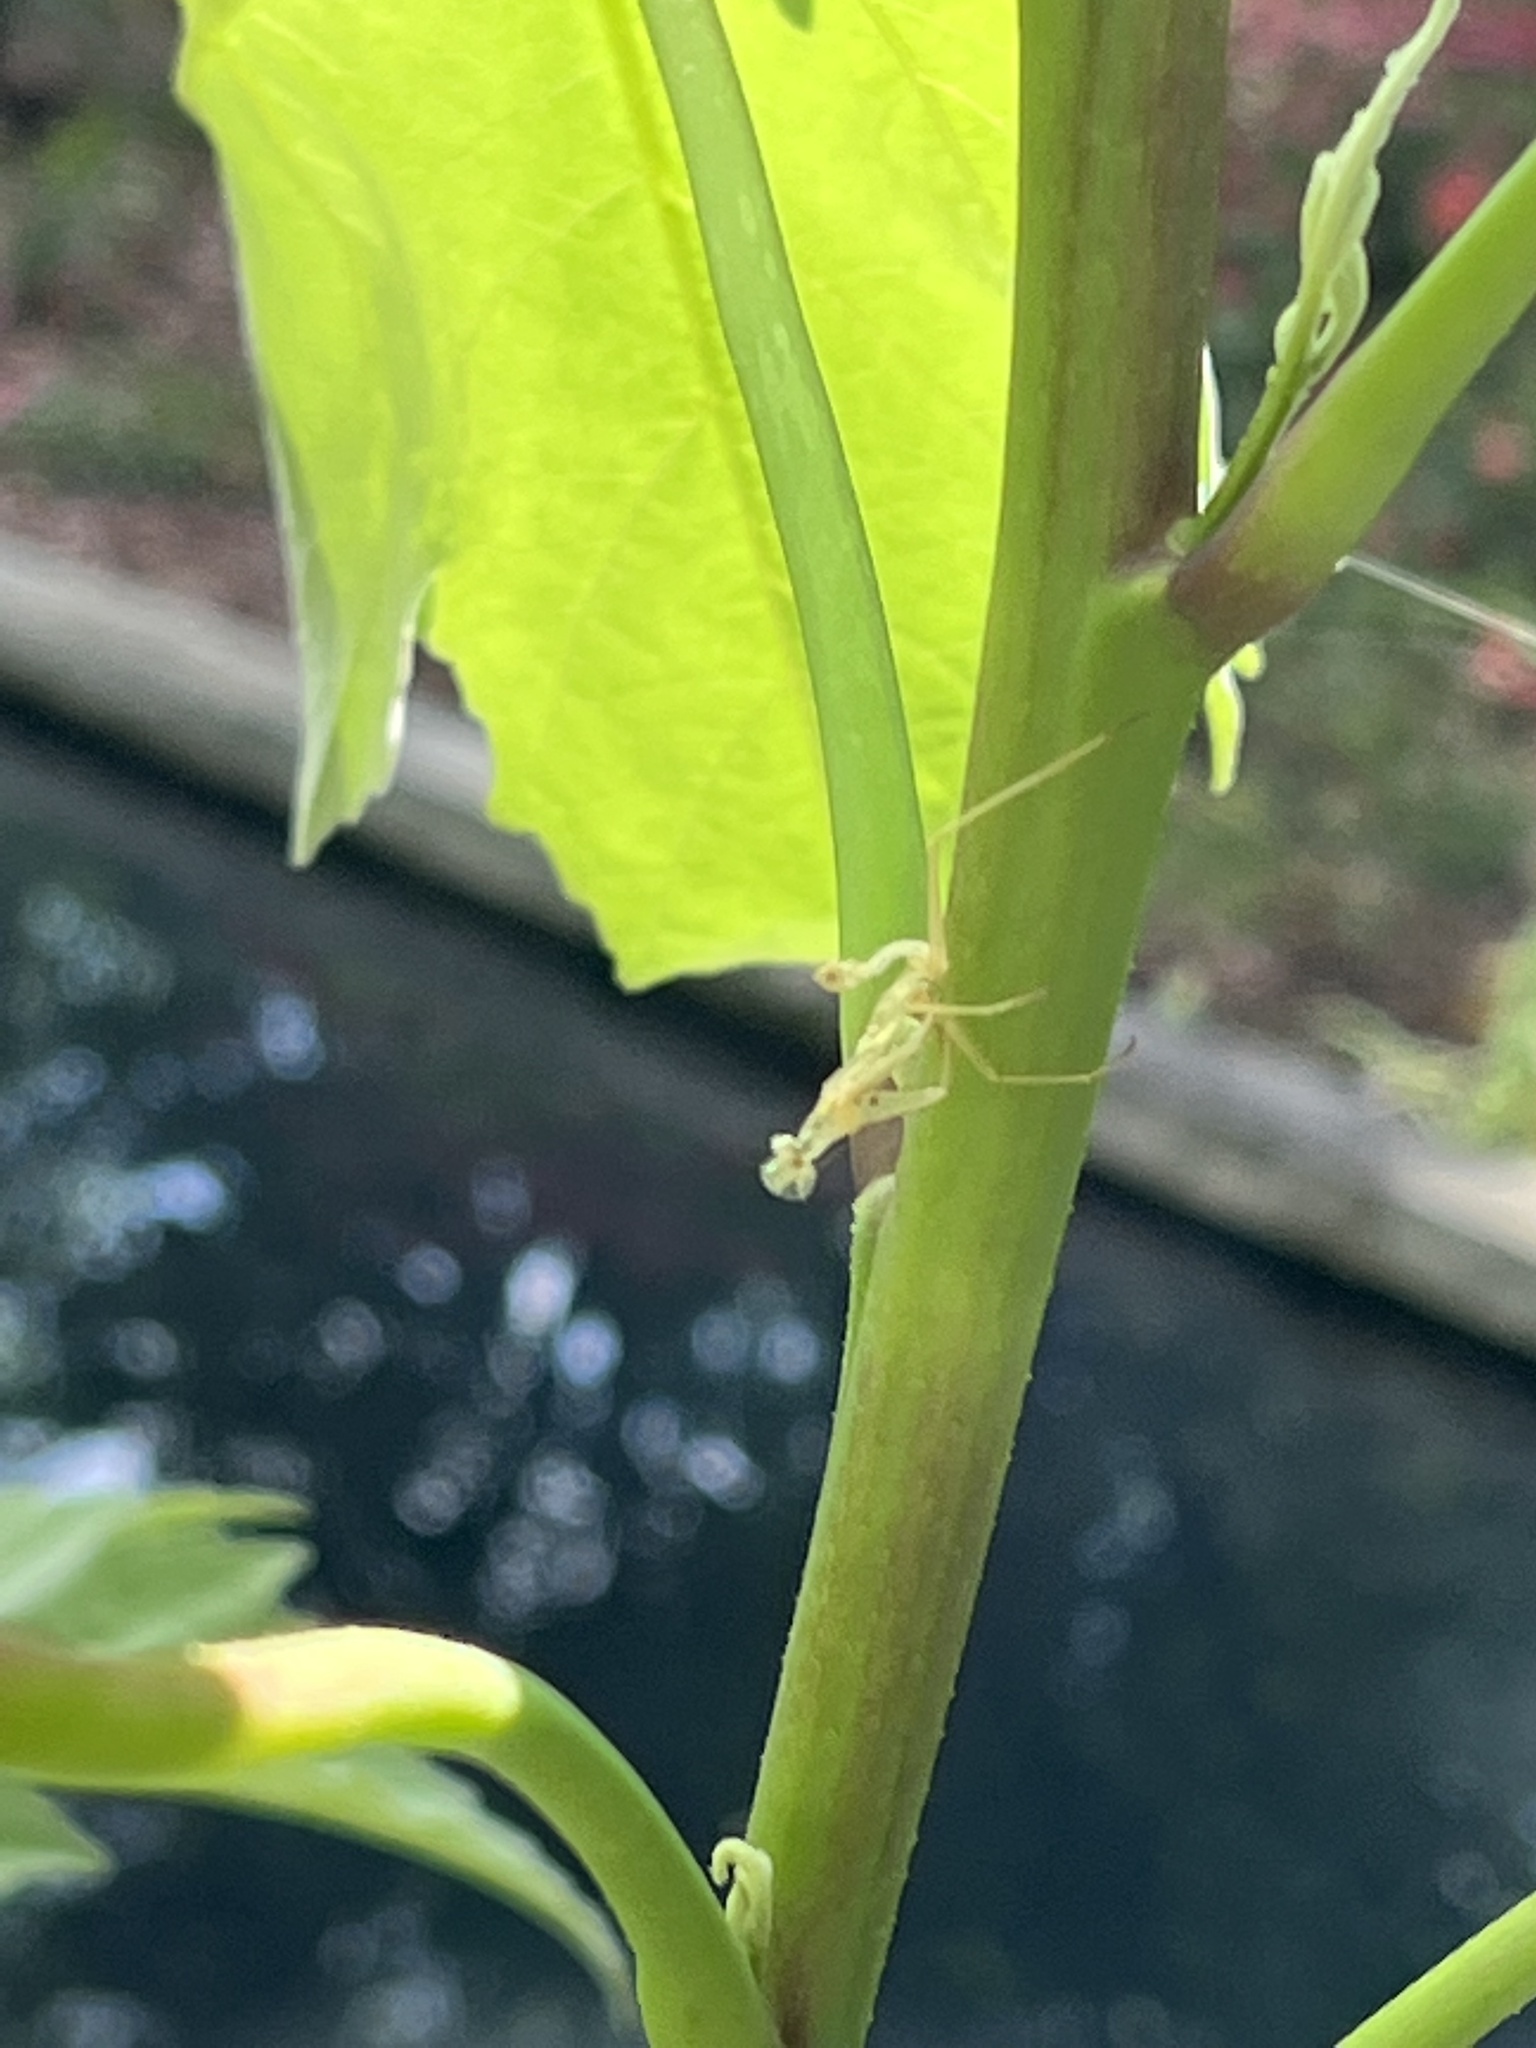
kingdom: Animalia
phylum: Arthropoda
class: Insecta
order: Mantodea
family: Mantidae
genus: Stagmomantis
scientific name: Stagmomantis carolina
